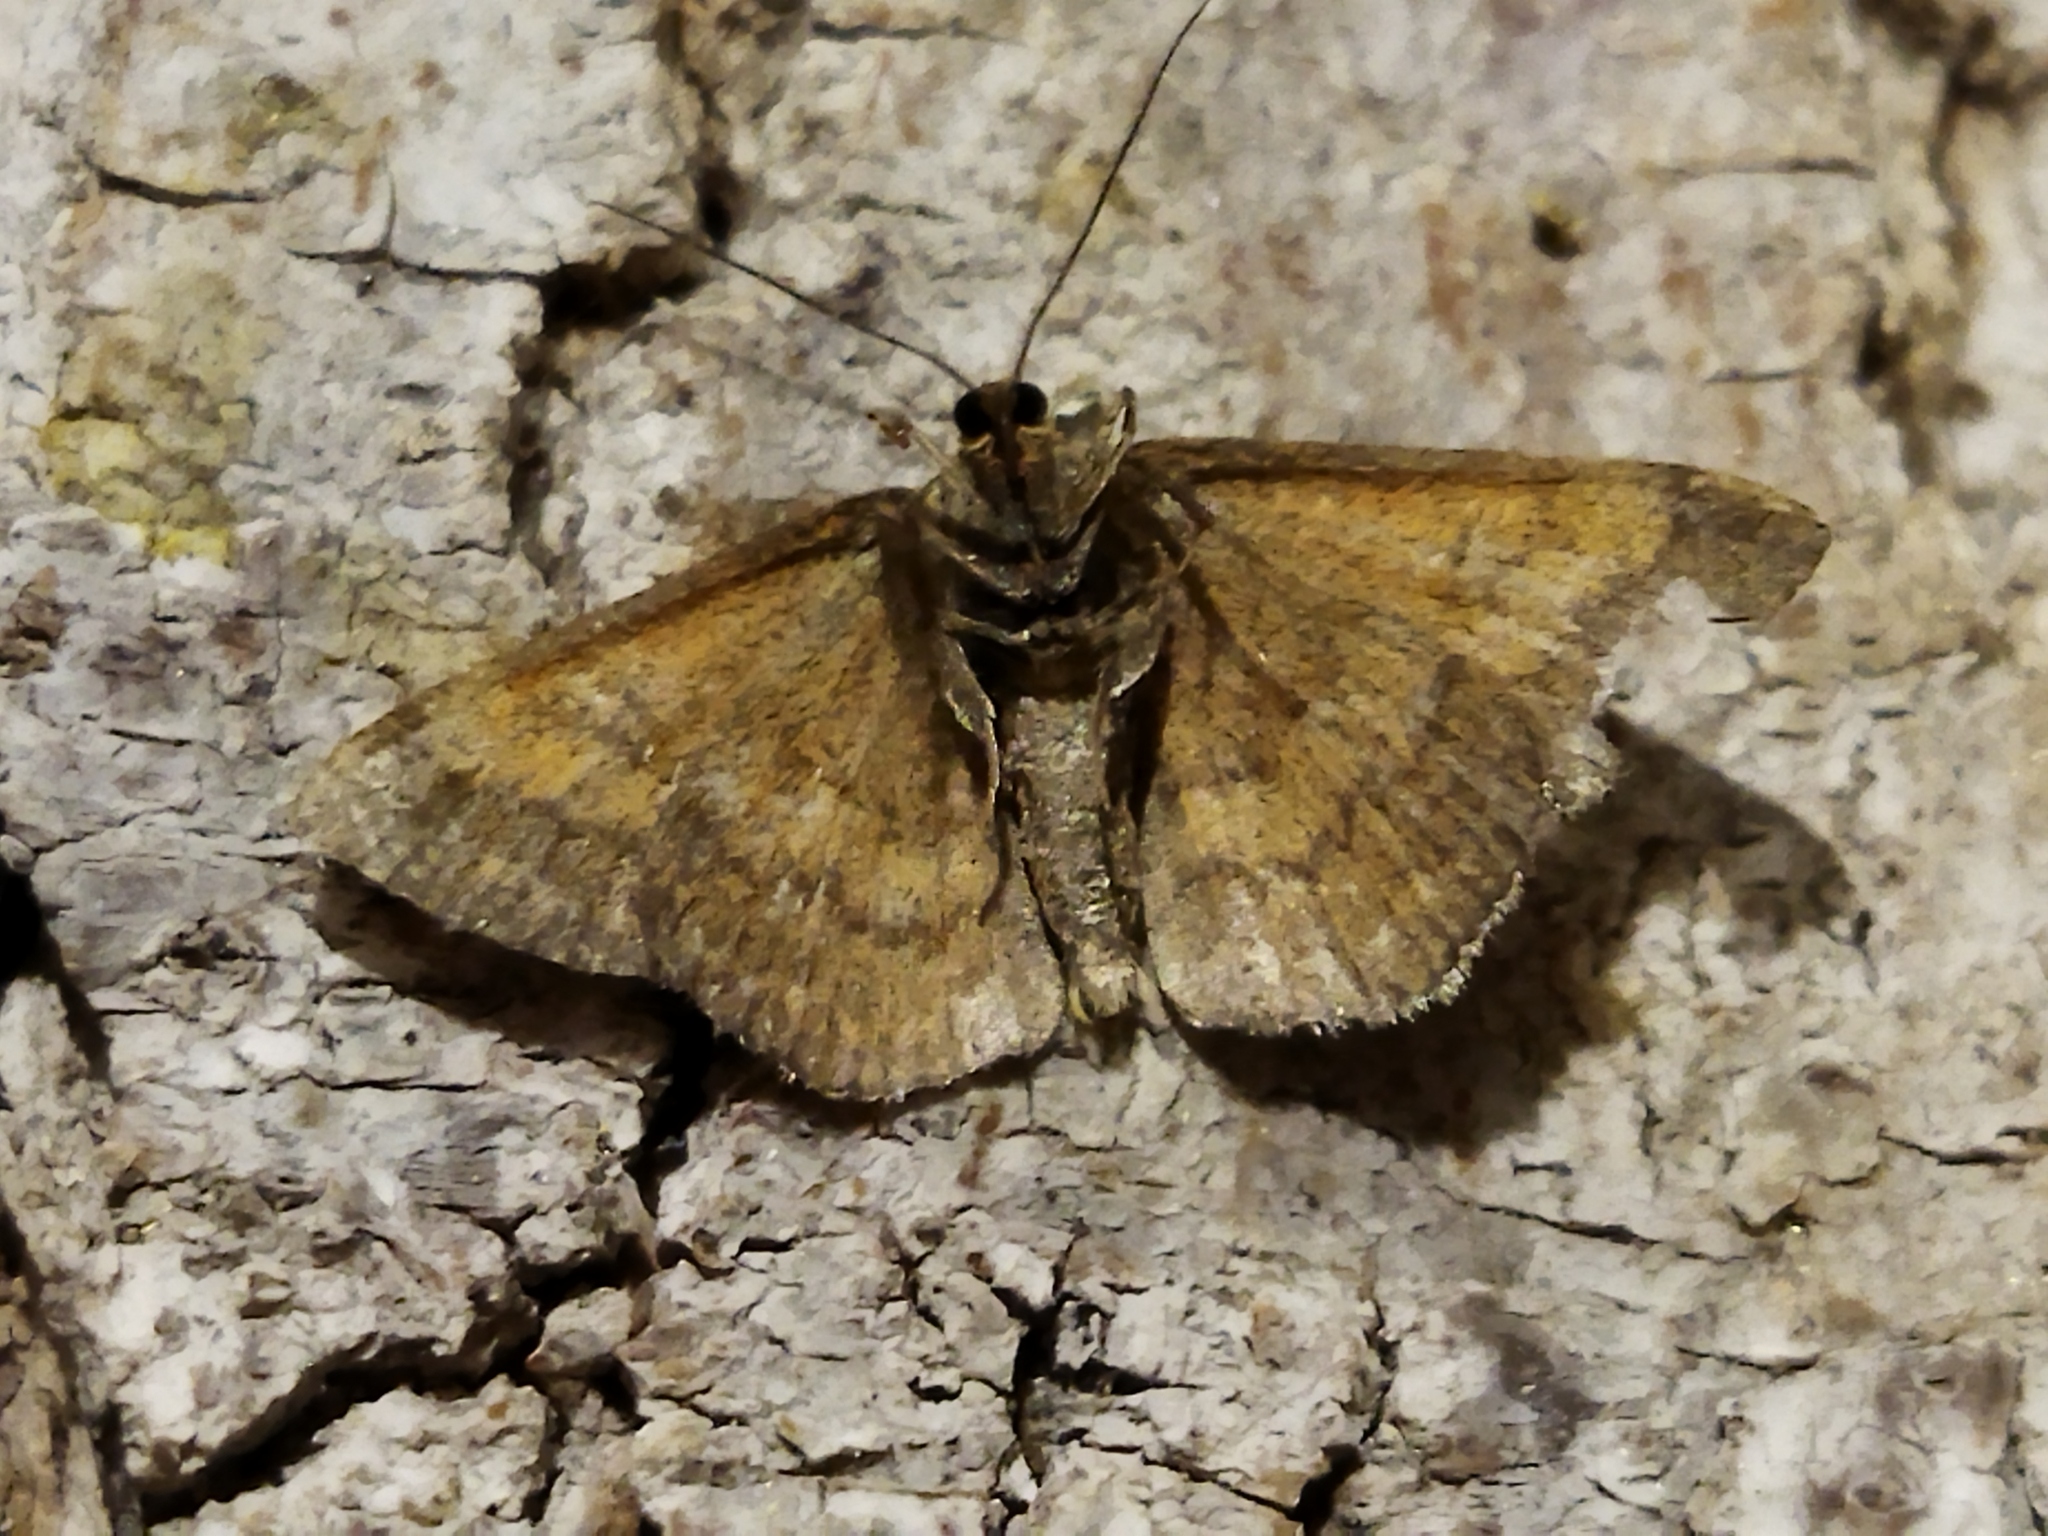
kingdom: Animalia
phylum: Arthropoda
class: Insecta
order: Lepidoptera
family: Geometridae
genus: Scopula
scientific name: Scopula rubiginata
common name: Tawny wave
